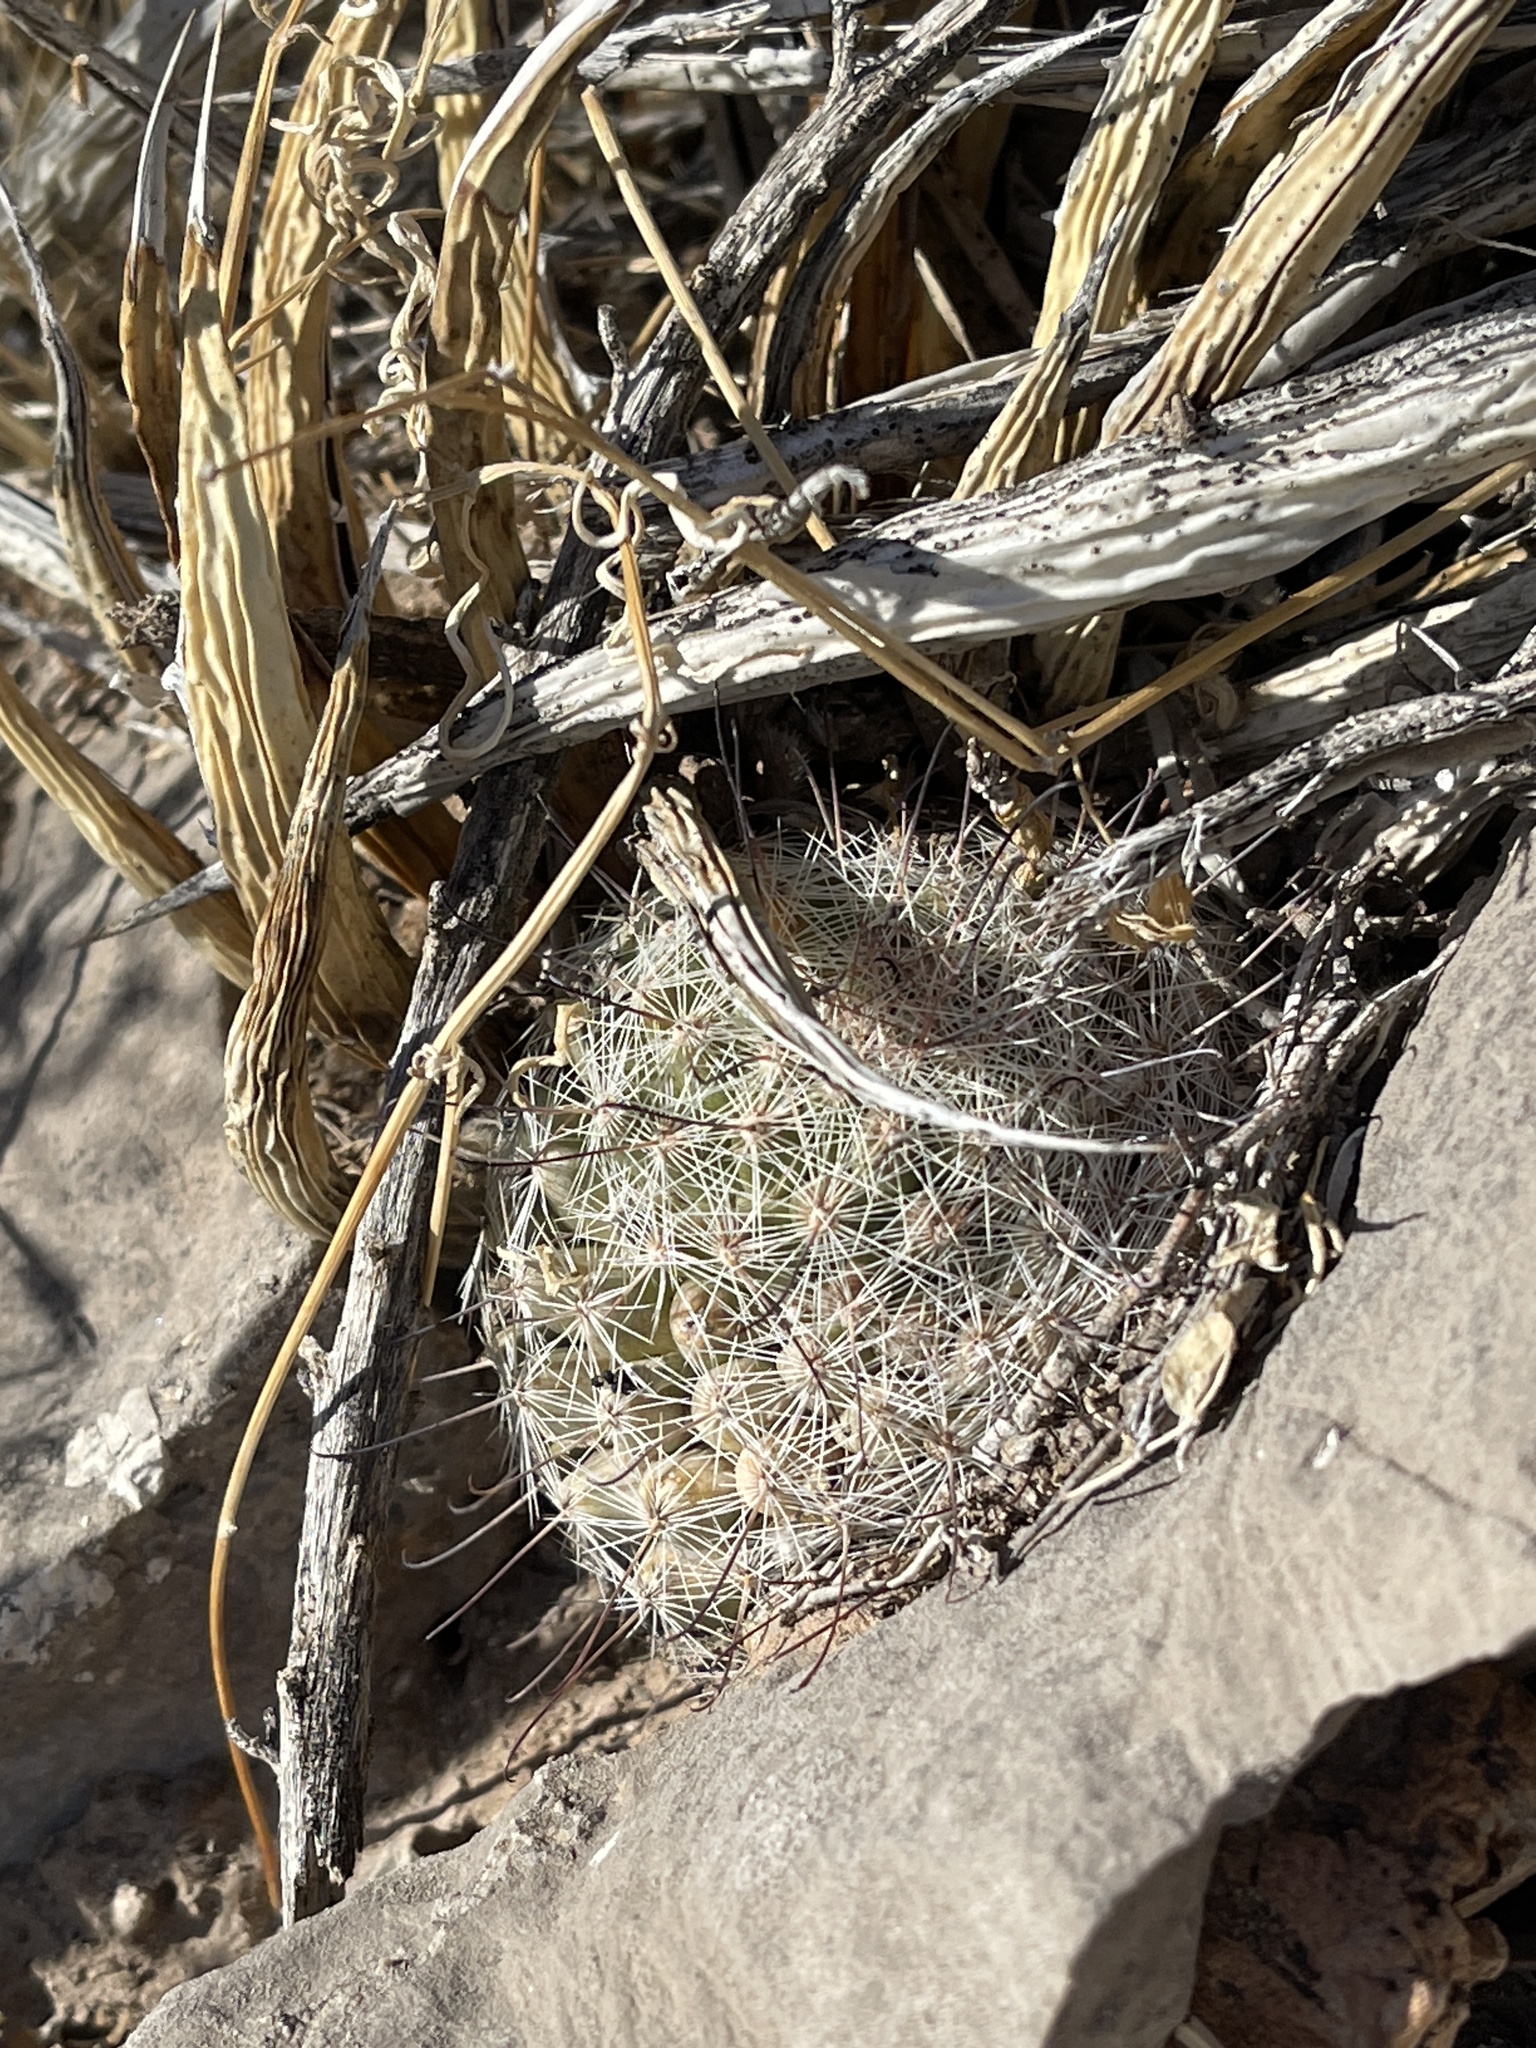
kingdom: Plantae
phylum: Tracheophyta
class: Magnoliopsida
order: Caryophyllales
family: Cactaceae
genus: Cochemiea
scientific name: Cochemiea grahamii
